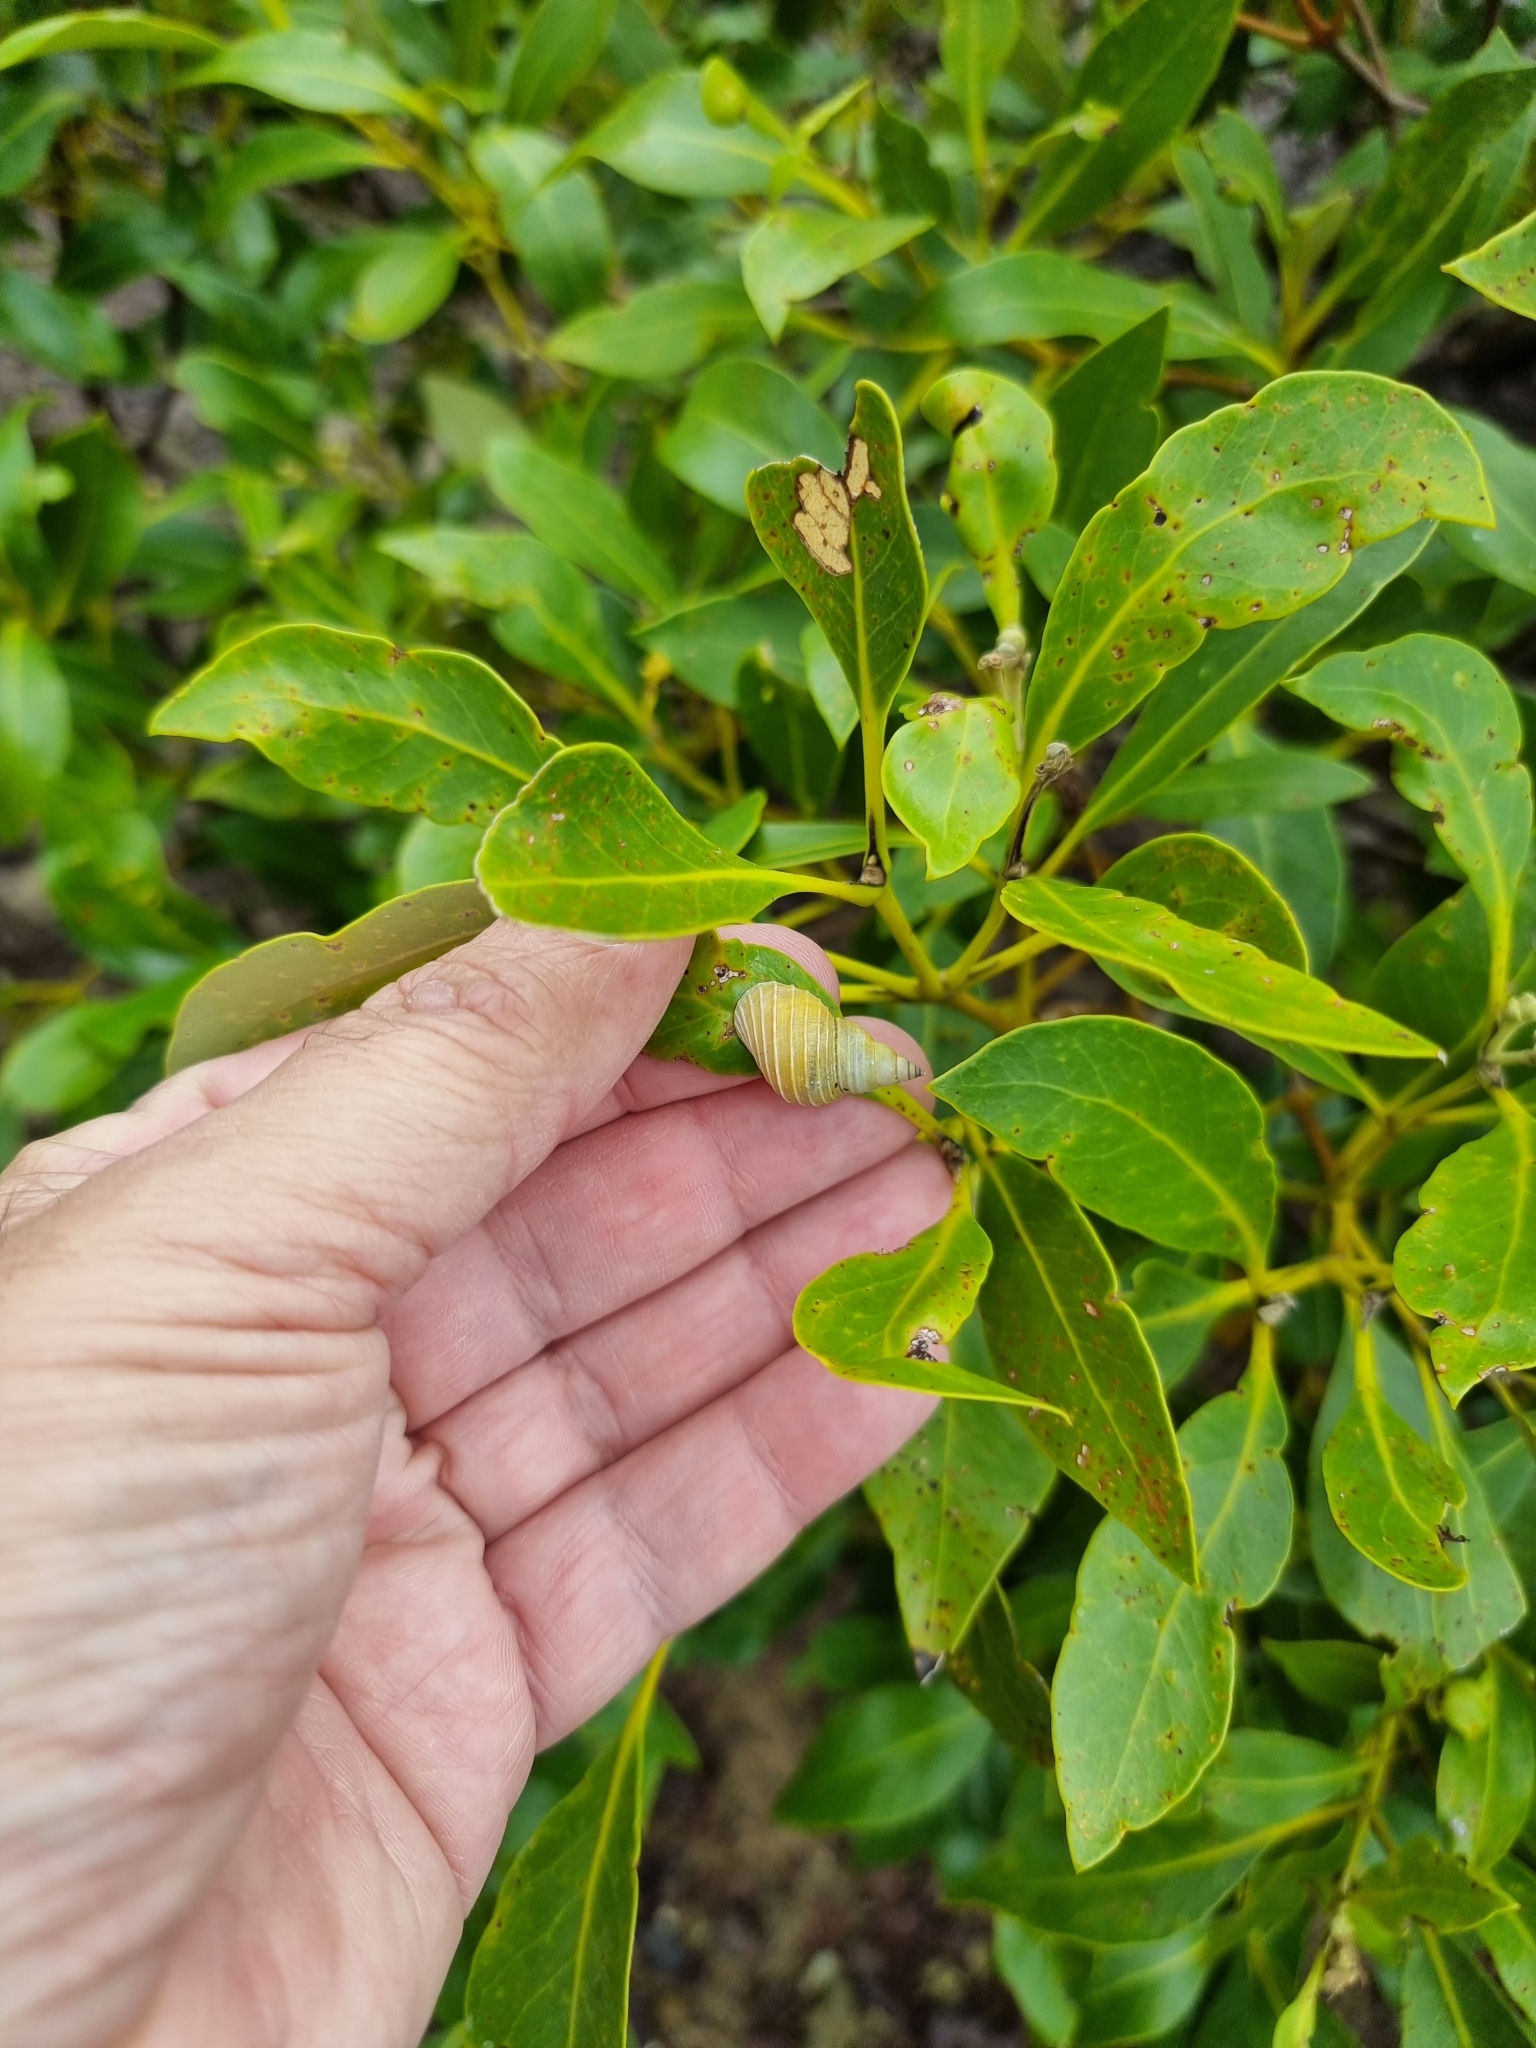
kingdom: Animalia
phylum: Mollusca
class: Gastropoda
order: Littorinimorpha
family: Littorinidae
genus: Littoraria
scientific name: Littoraria filosa
